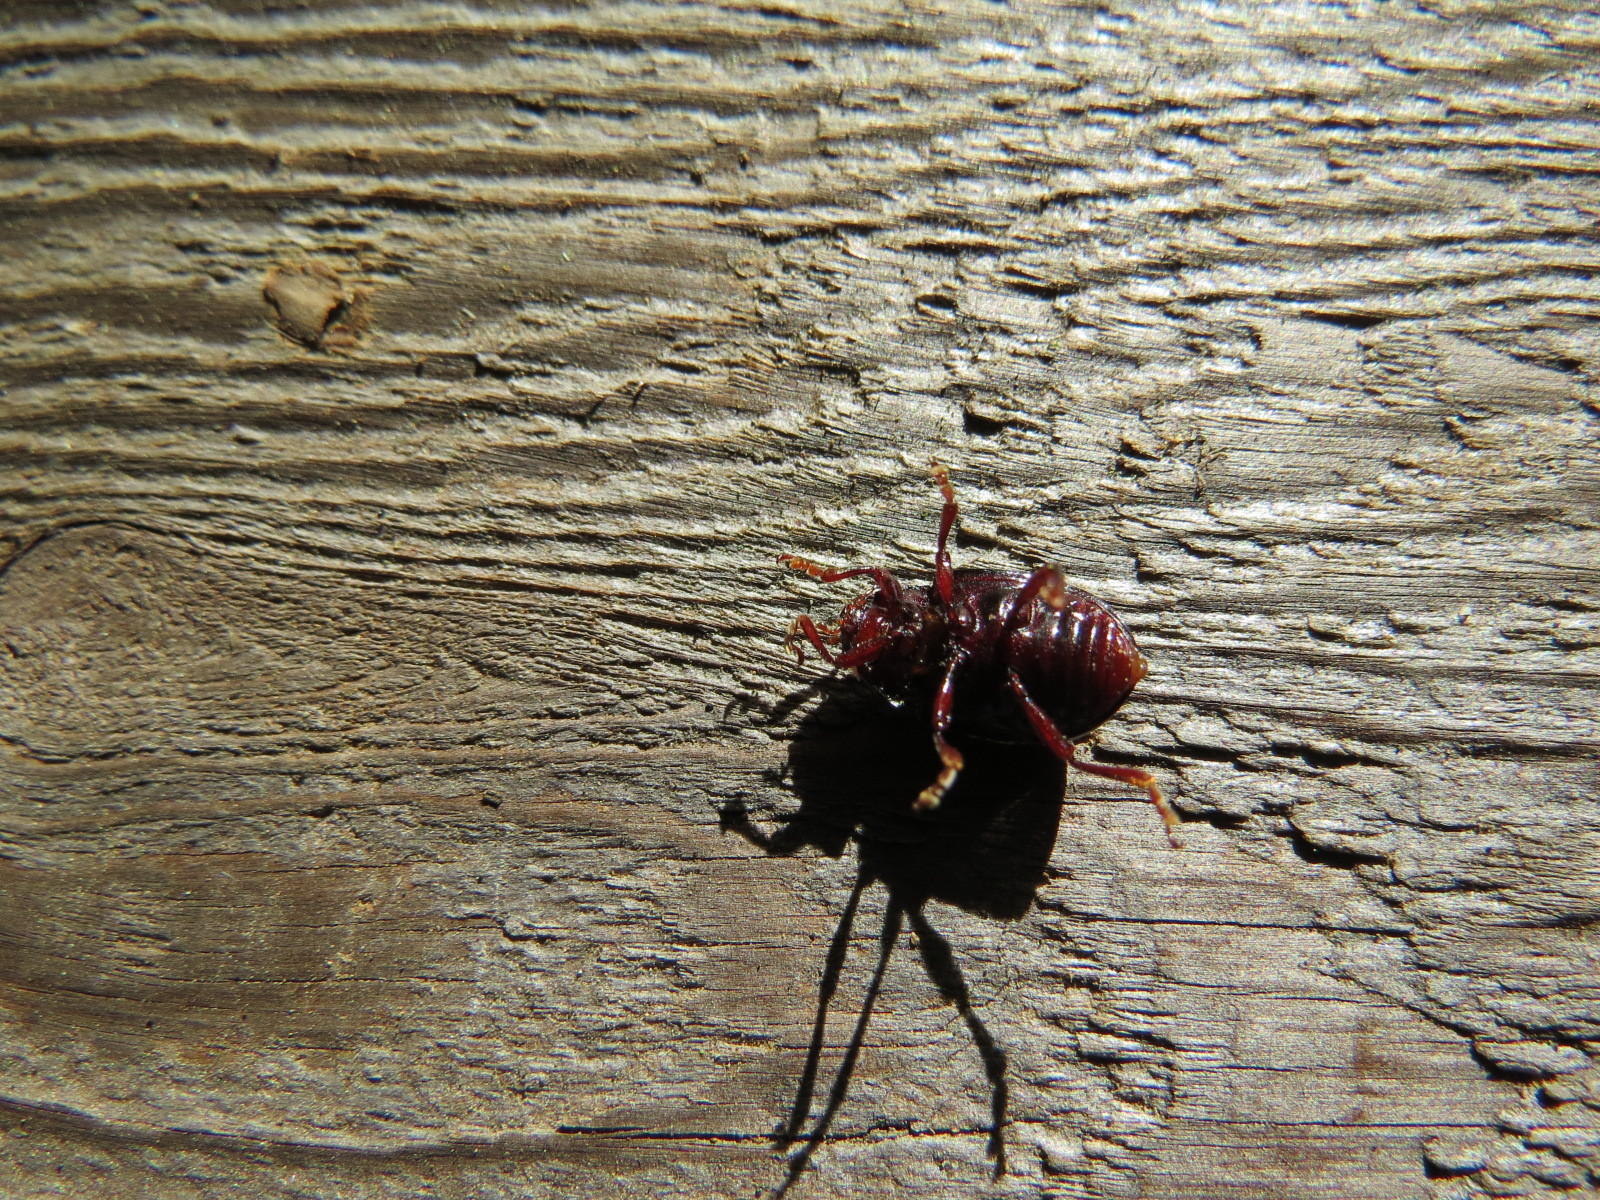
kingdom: Animalia
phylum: Arthropoda
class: Insecta
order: Coleoptera
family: Chrysomelidae
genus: Chrysolina
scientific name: Chrysolina bankii
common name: Leaf beetle
